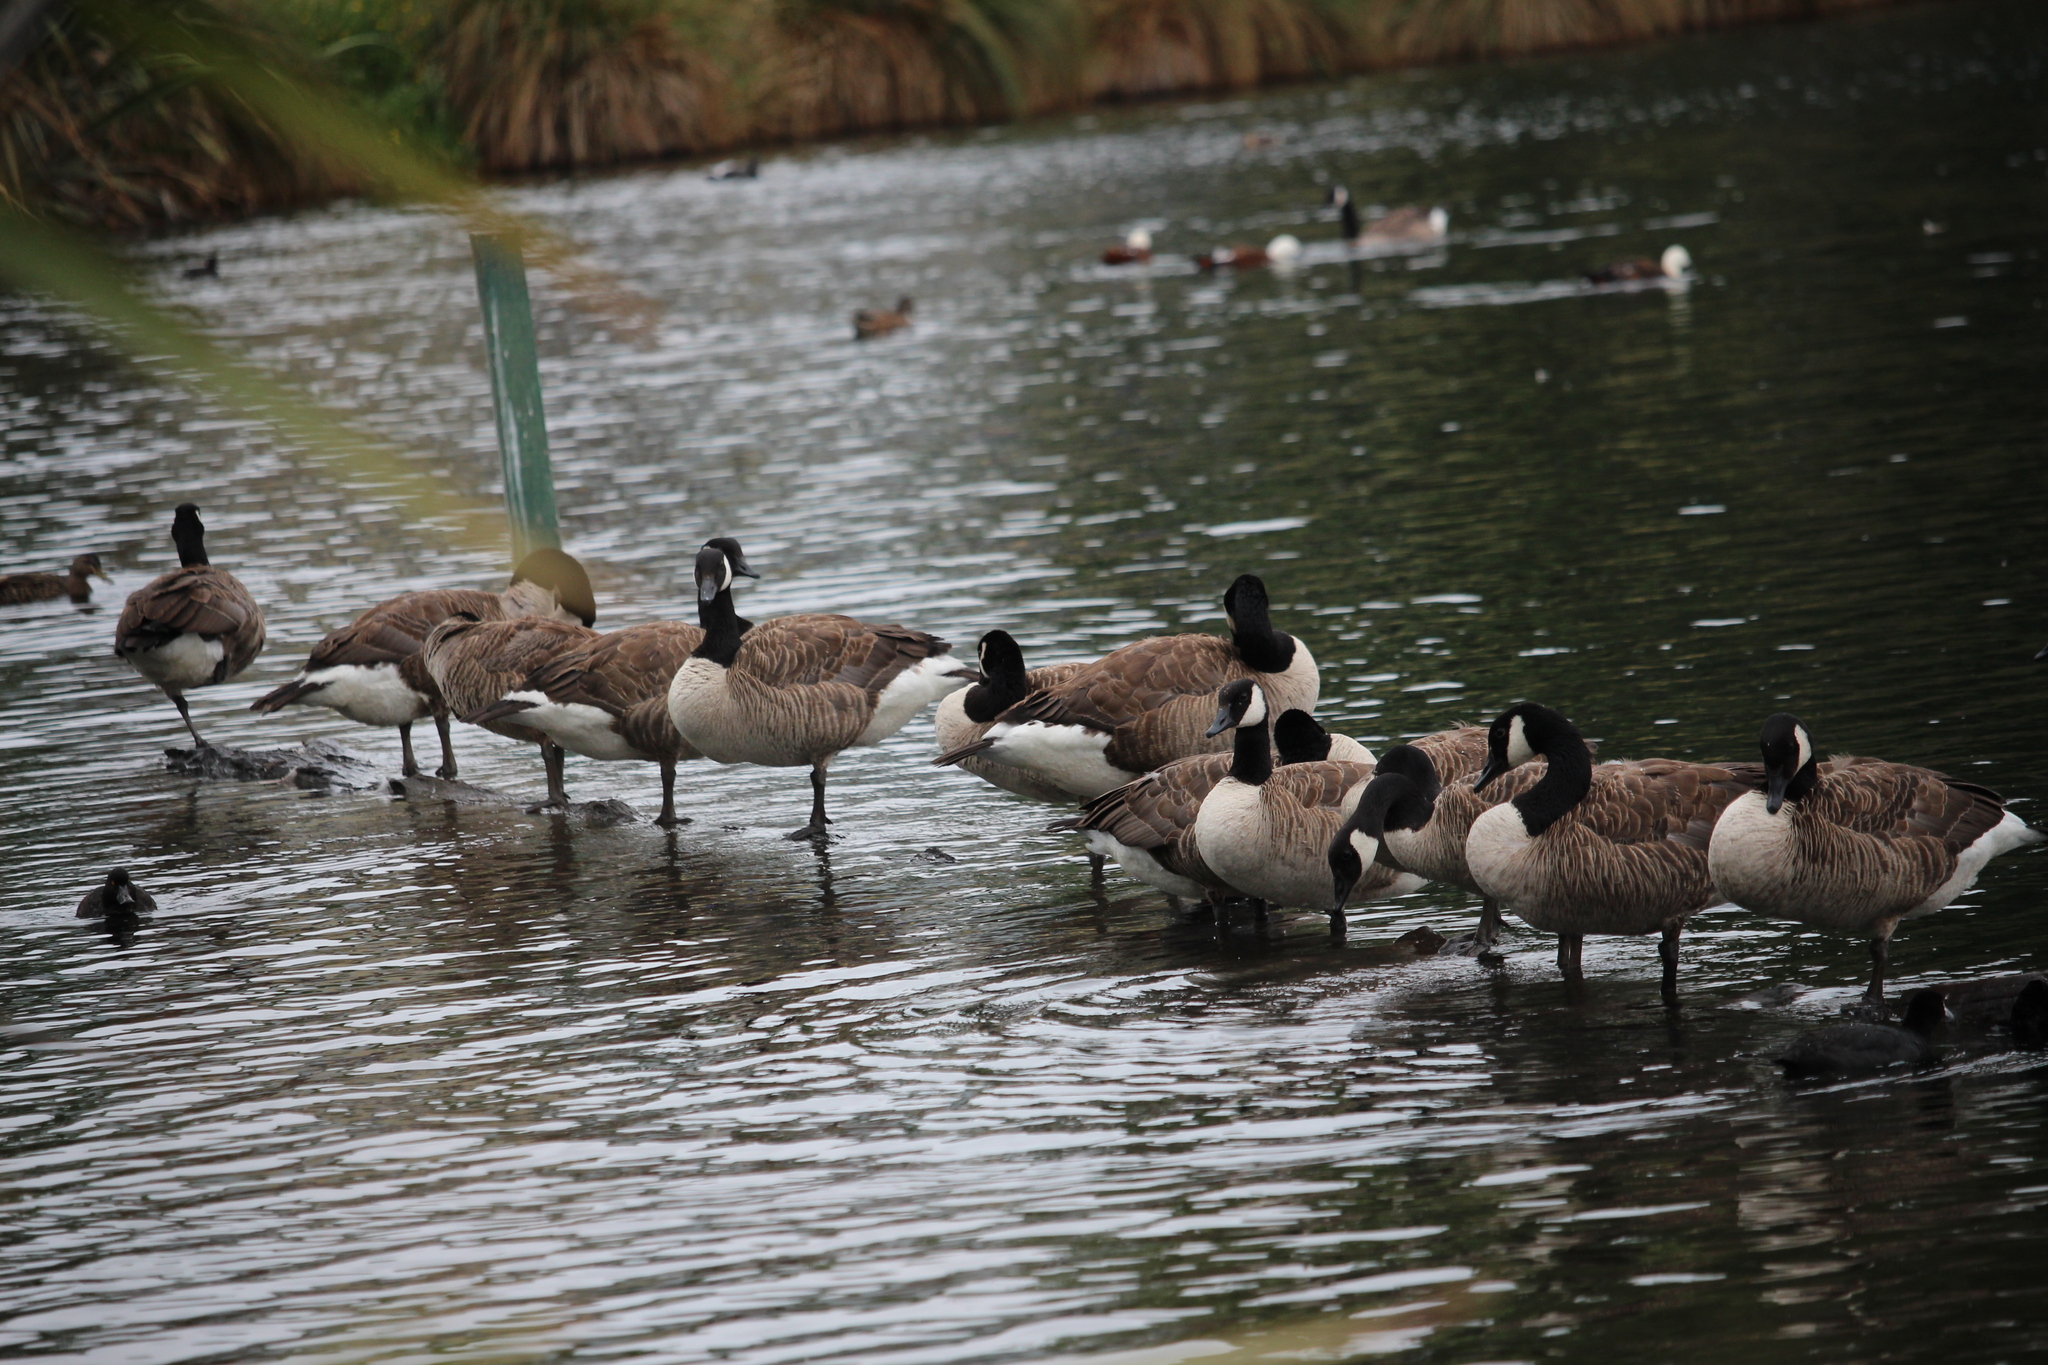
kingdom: Animalia
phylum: Chordata
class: Aves
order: Anseriformes
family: Anatidae
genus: Branta
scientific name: Branta canadensis
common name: Canada goose
